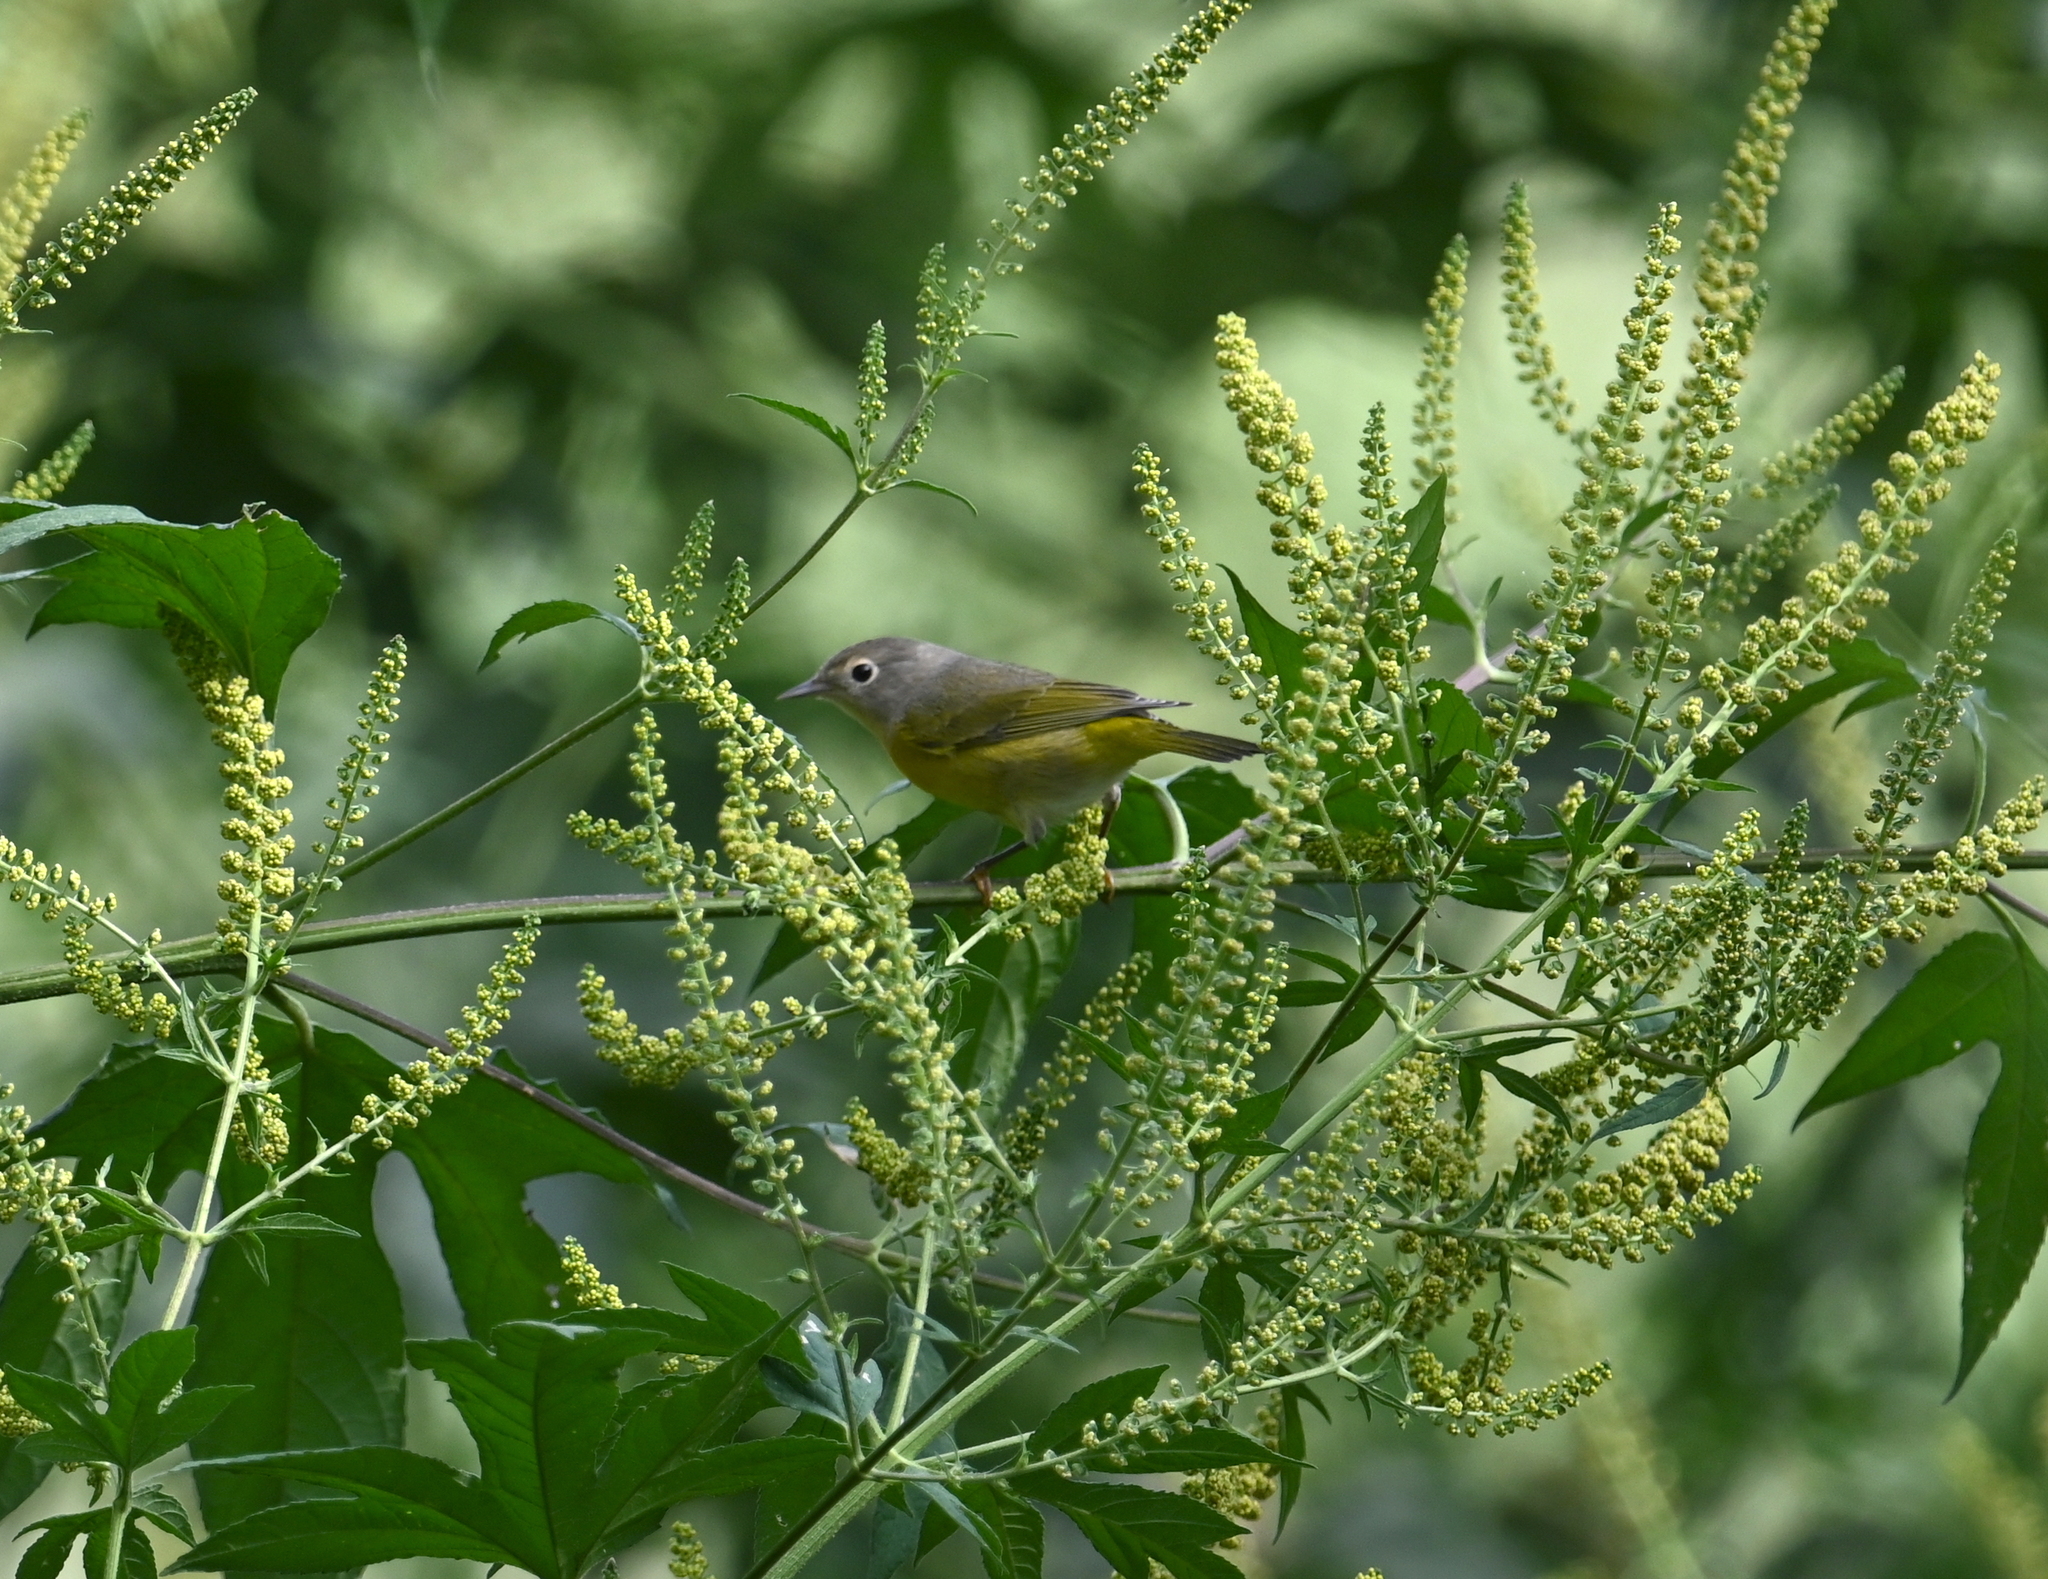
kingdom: Animalia
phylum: Chordata
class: Aves
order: Passeriformes
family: Parulidae
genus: Leiothlypis
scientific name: Leiothlypis ruficapilla
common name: Nashville warbler
